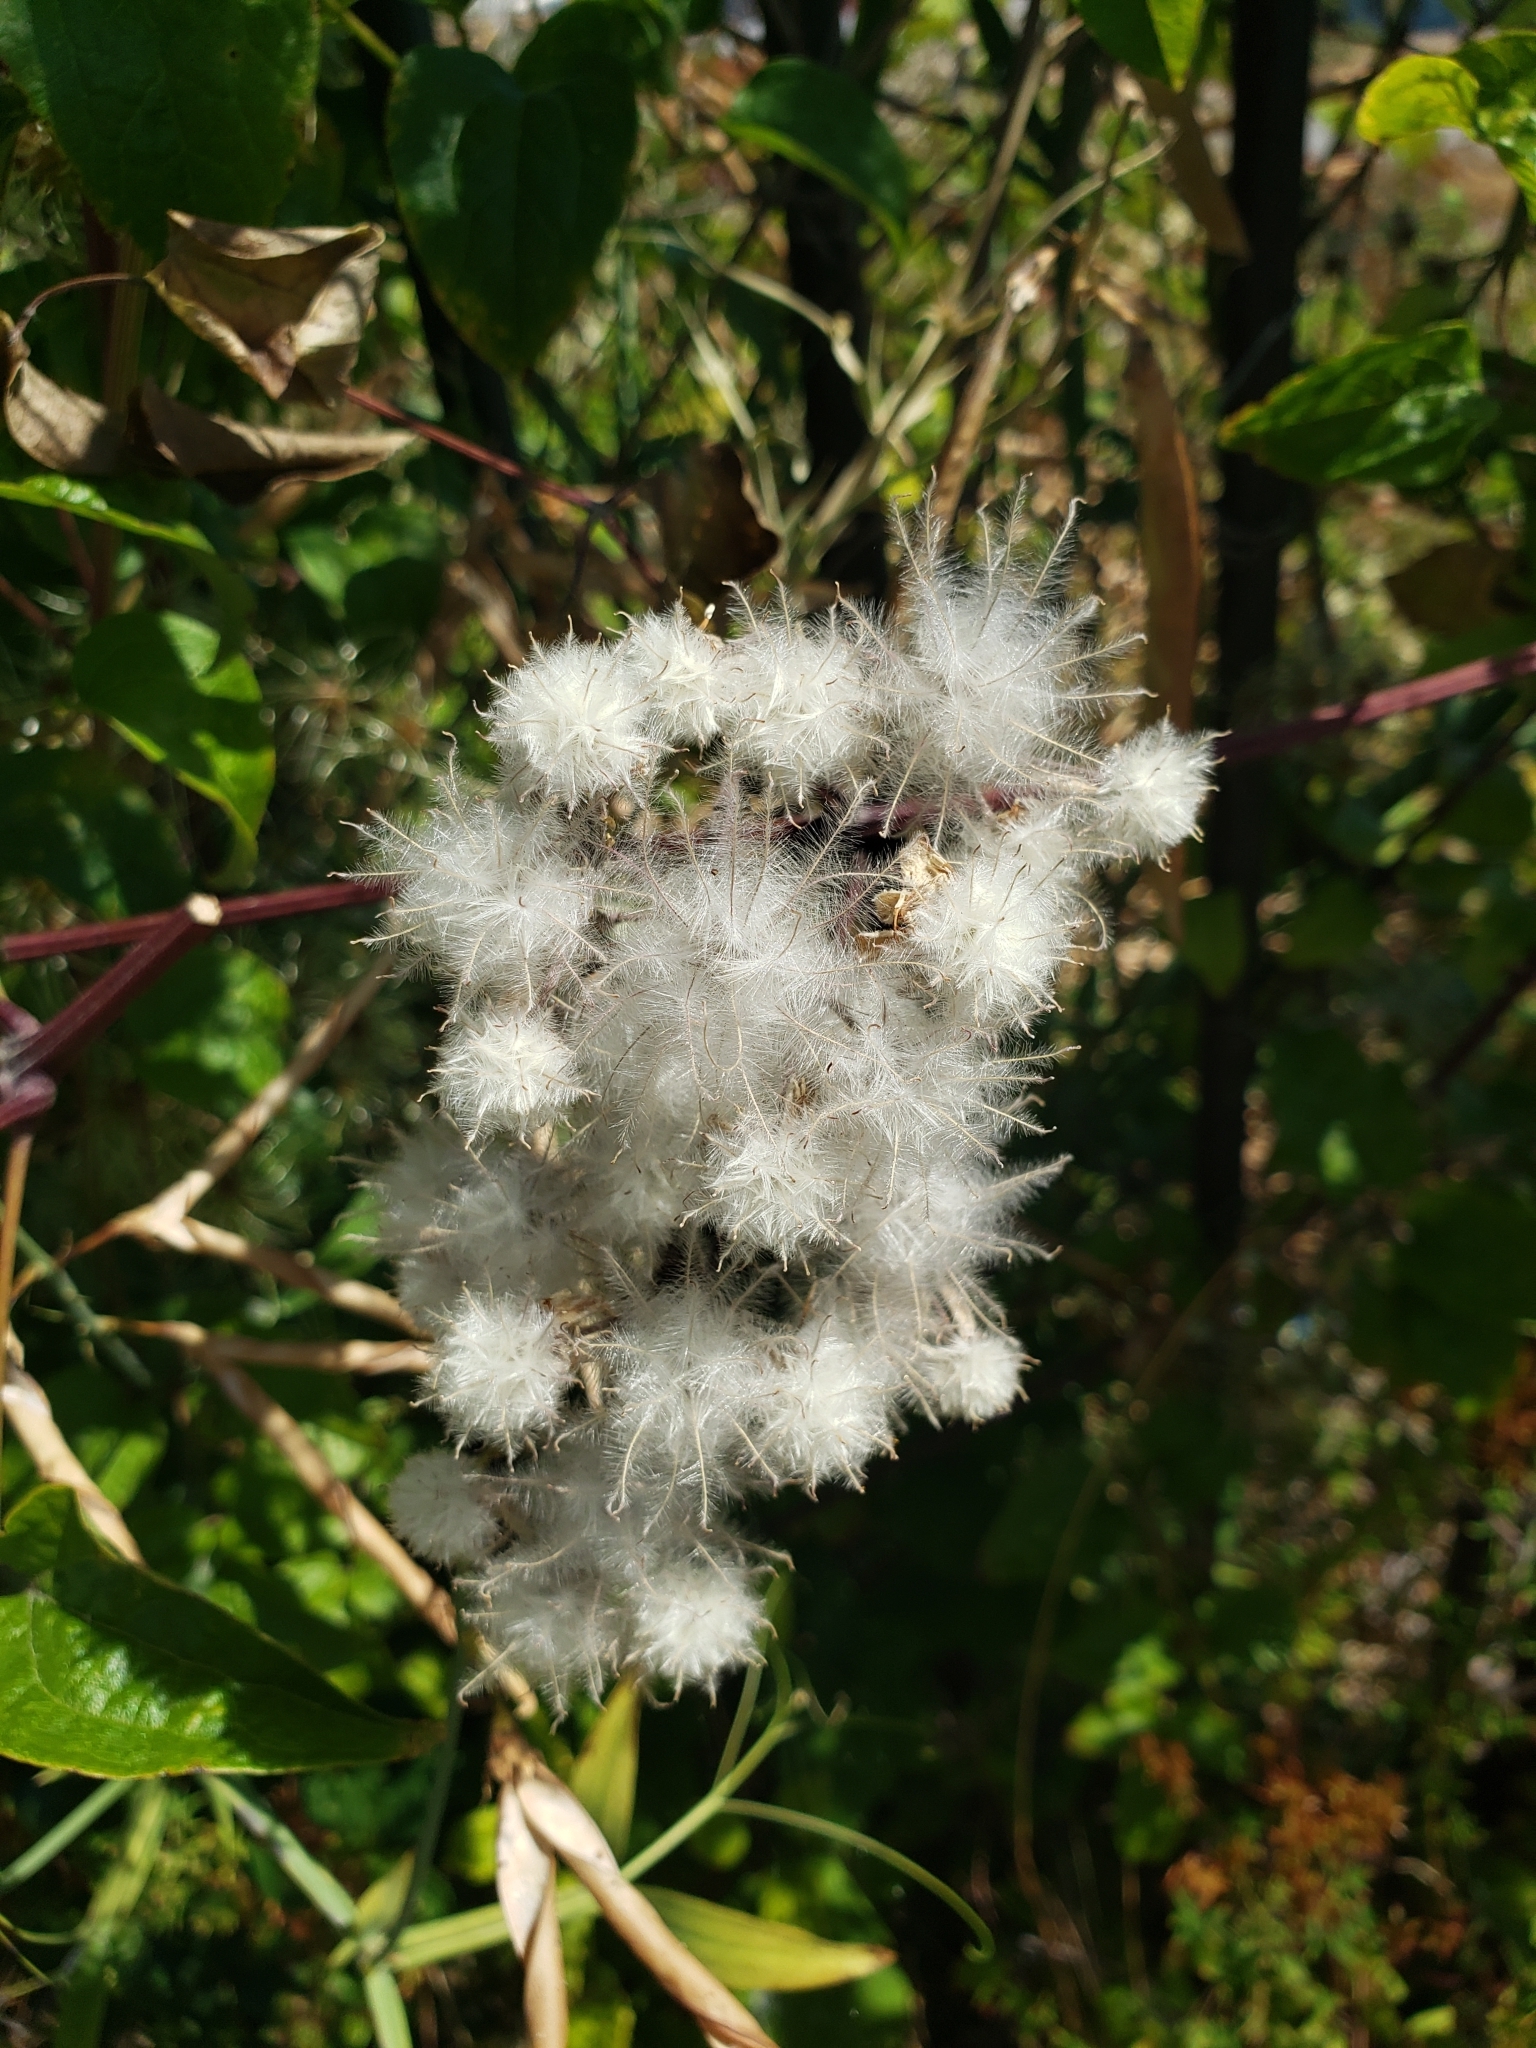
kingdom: Plantae
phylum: Tracheophyta
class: Magnoliopsida
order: Ranunculales
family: Ranunculaceae
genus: Clematis
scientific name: Clematis vitalba
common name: Evergreen clematis
